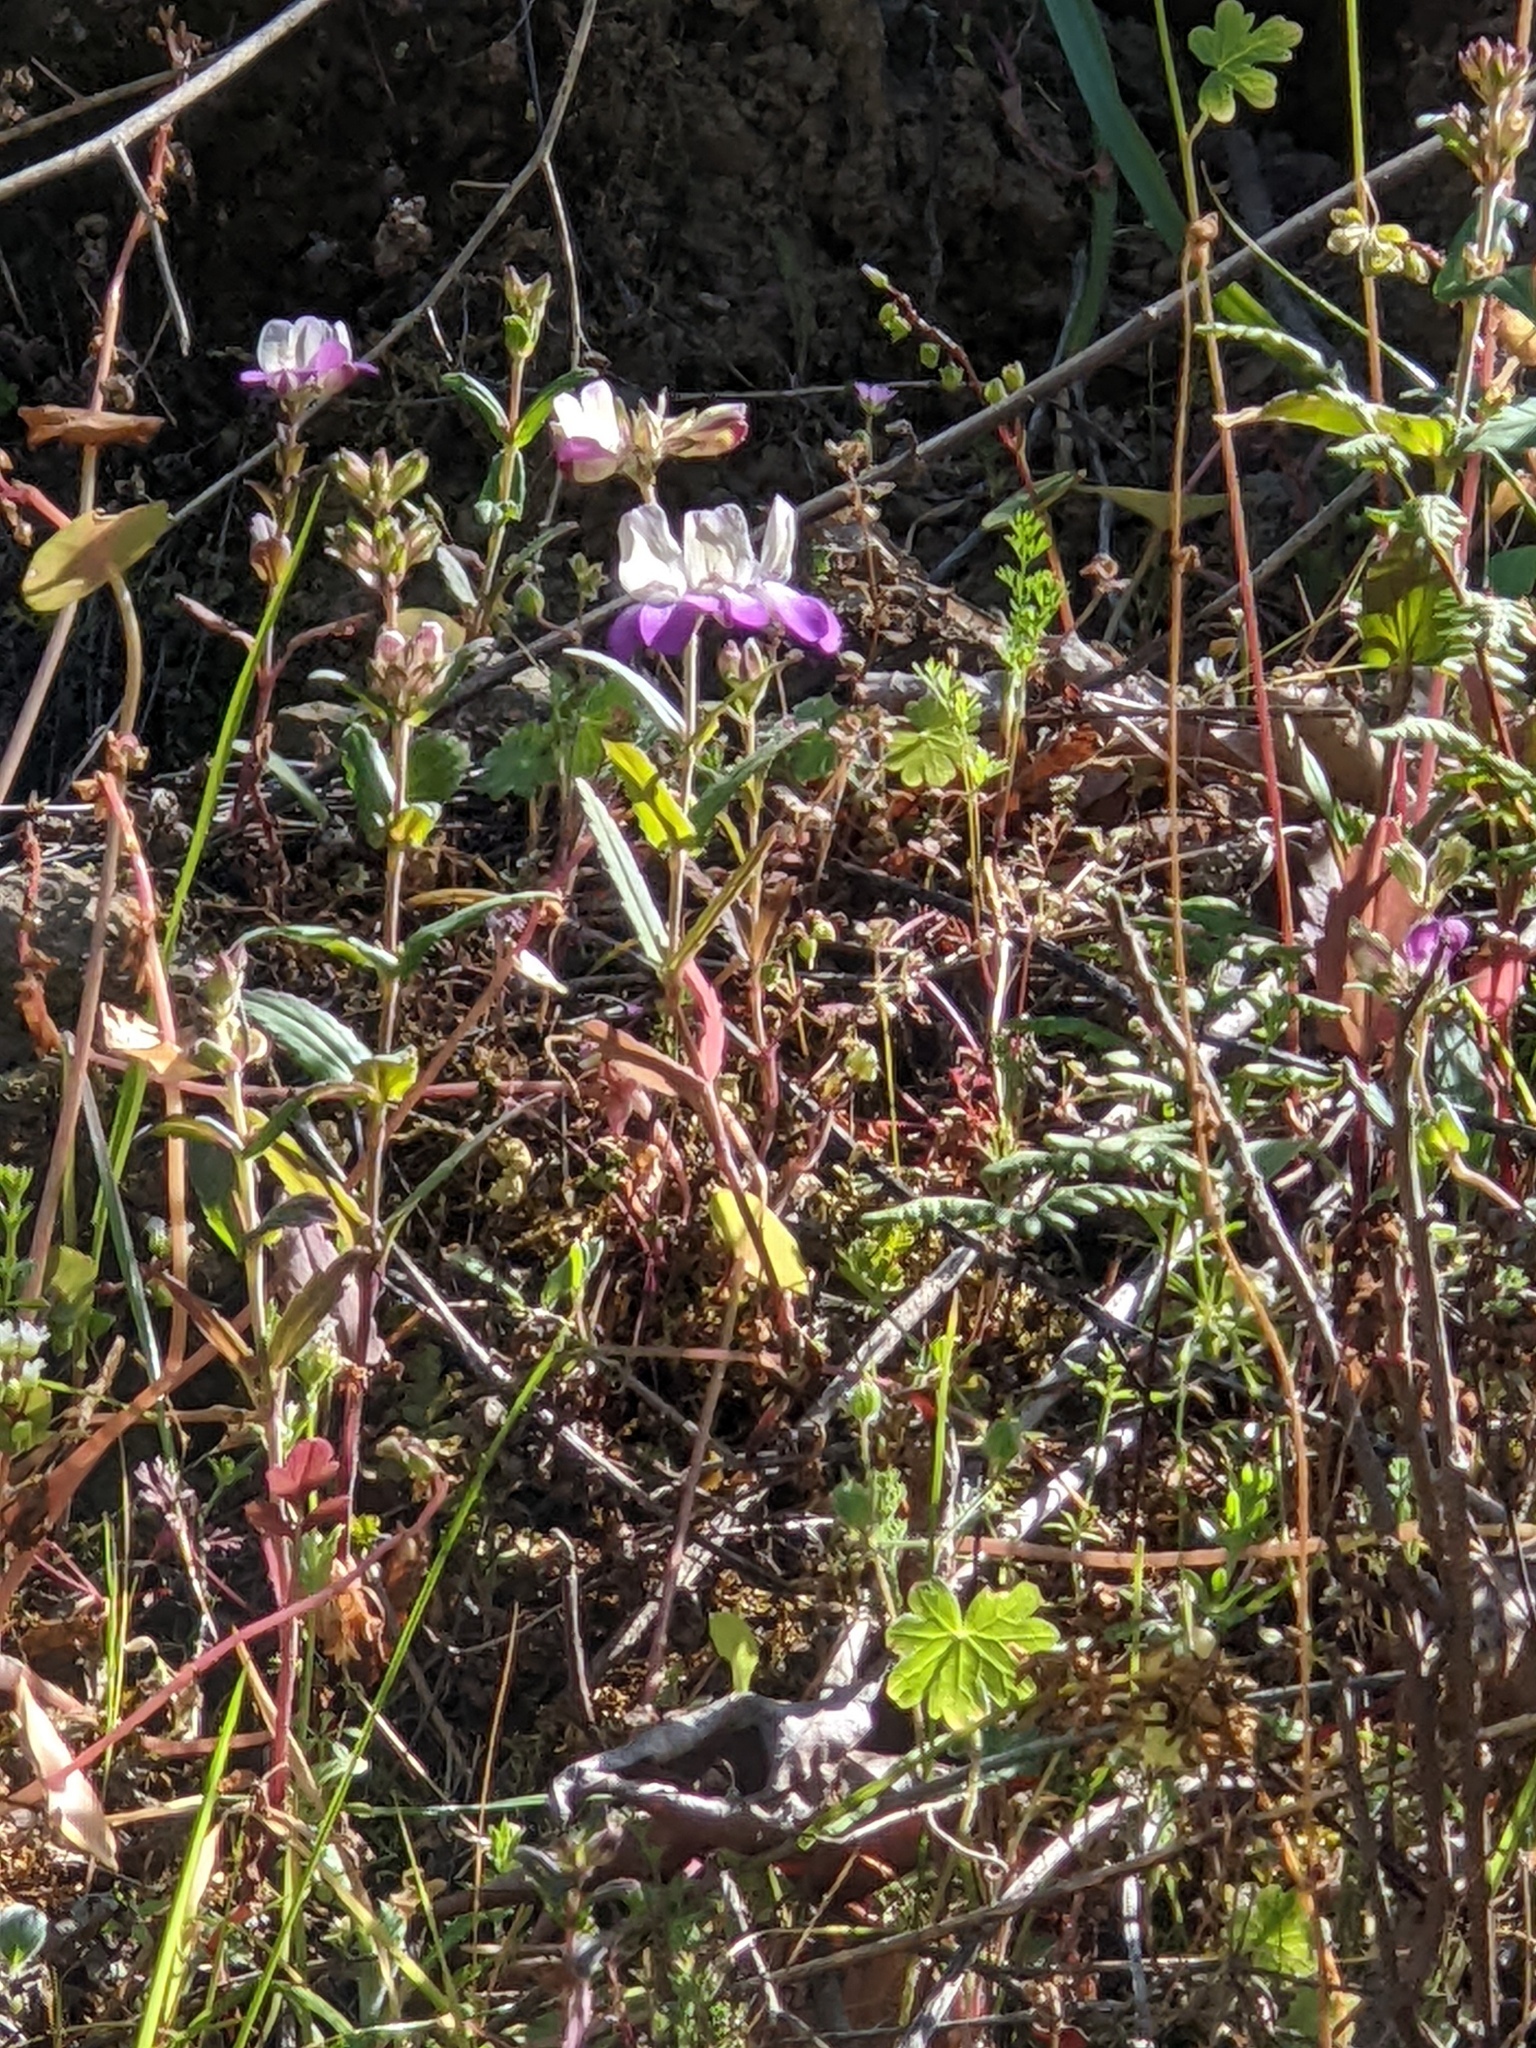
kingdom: Plantae
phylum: Tracheophyta
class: Magnoliopsida
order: Lamiales
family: Plantaginaceae
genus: Collinsia
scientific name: Collinsia heterophylla
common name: Chinese-houses
